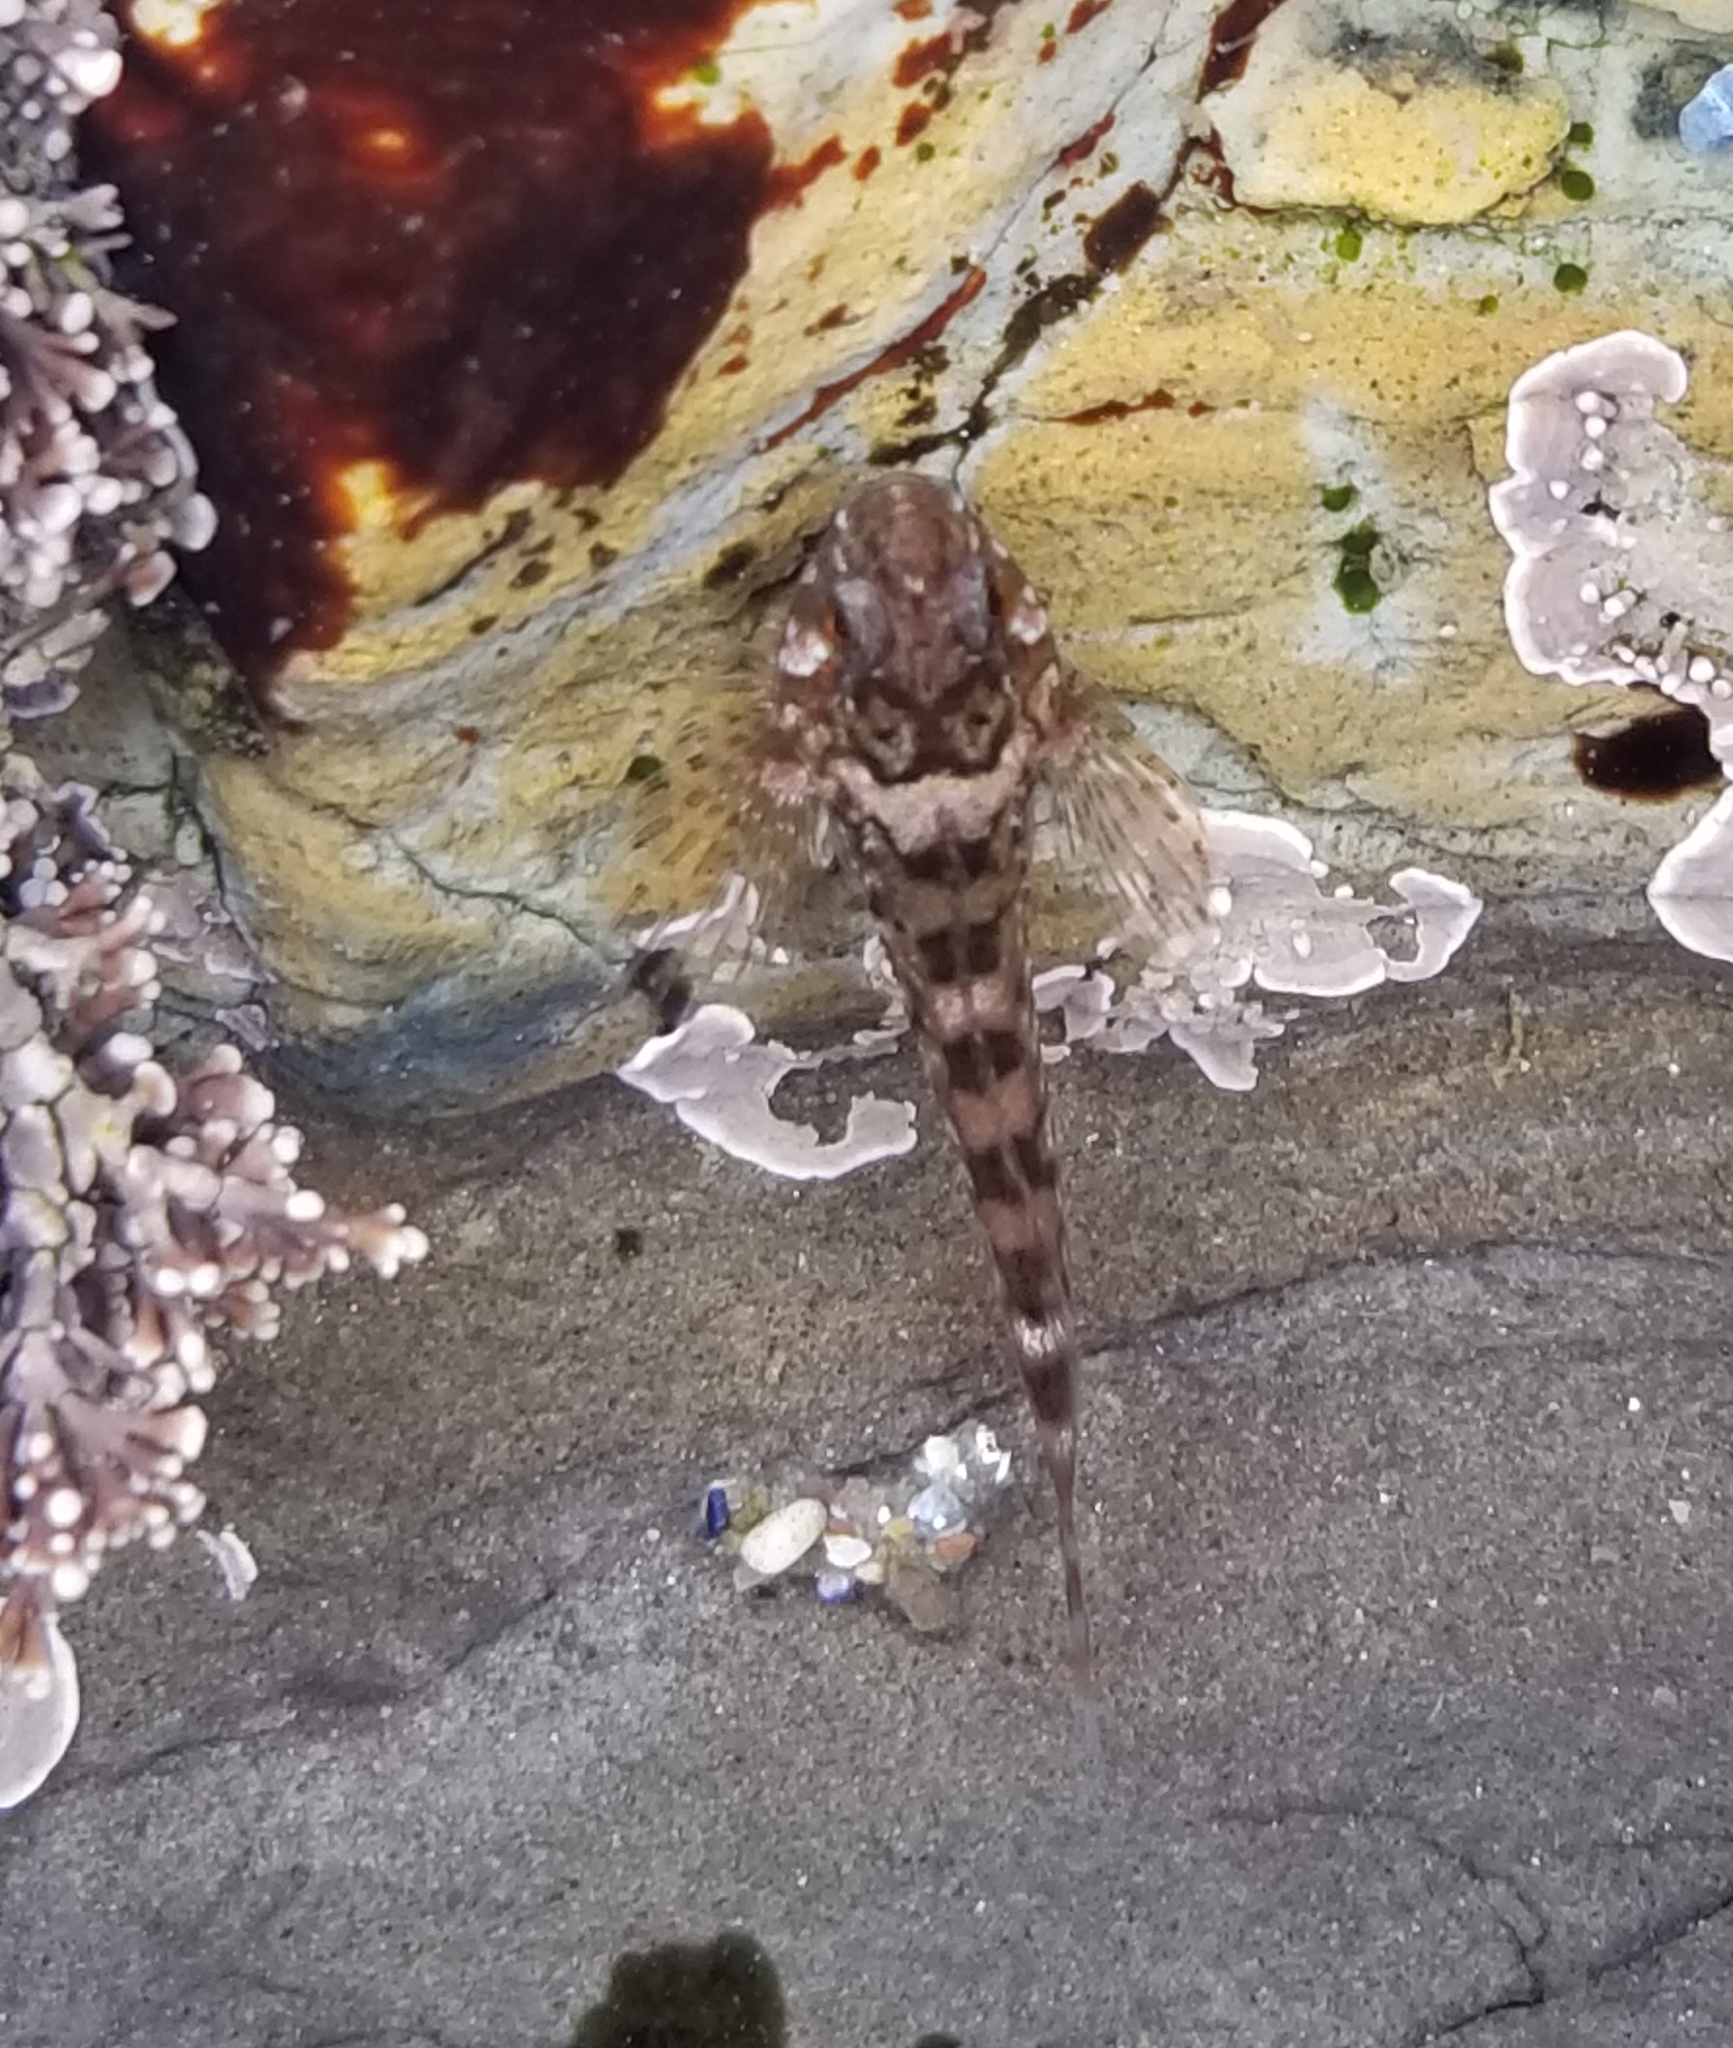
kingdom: Animalia
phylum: Chordata
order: Scorpaeniformes
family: Cottidae
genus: Clinocottus
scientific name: Clinocottus recalvus
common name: Bald sculpin
